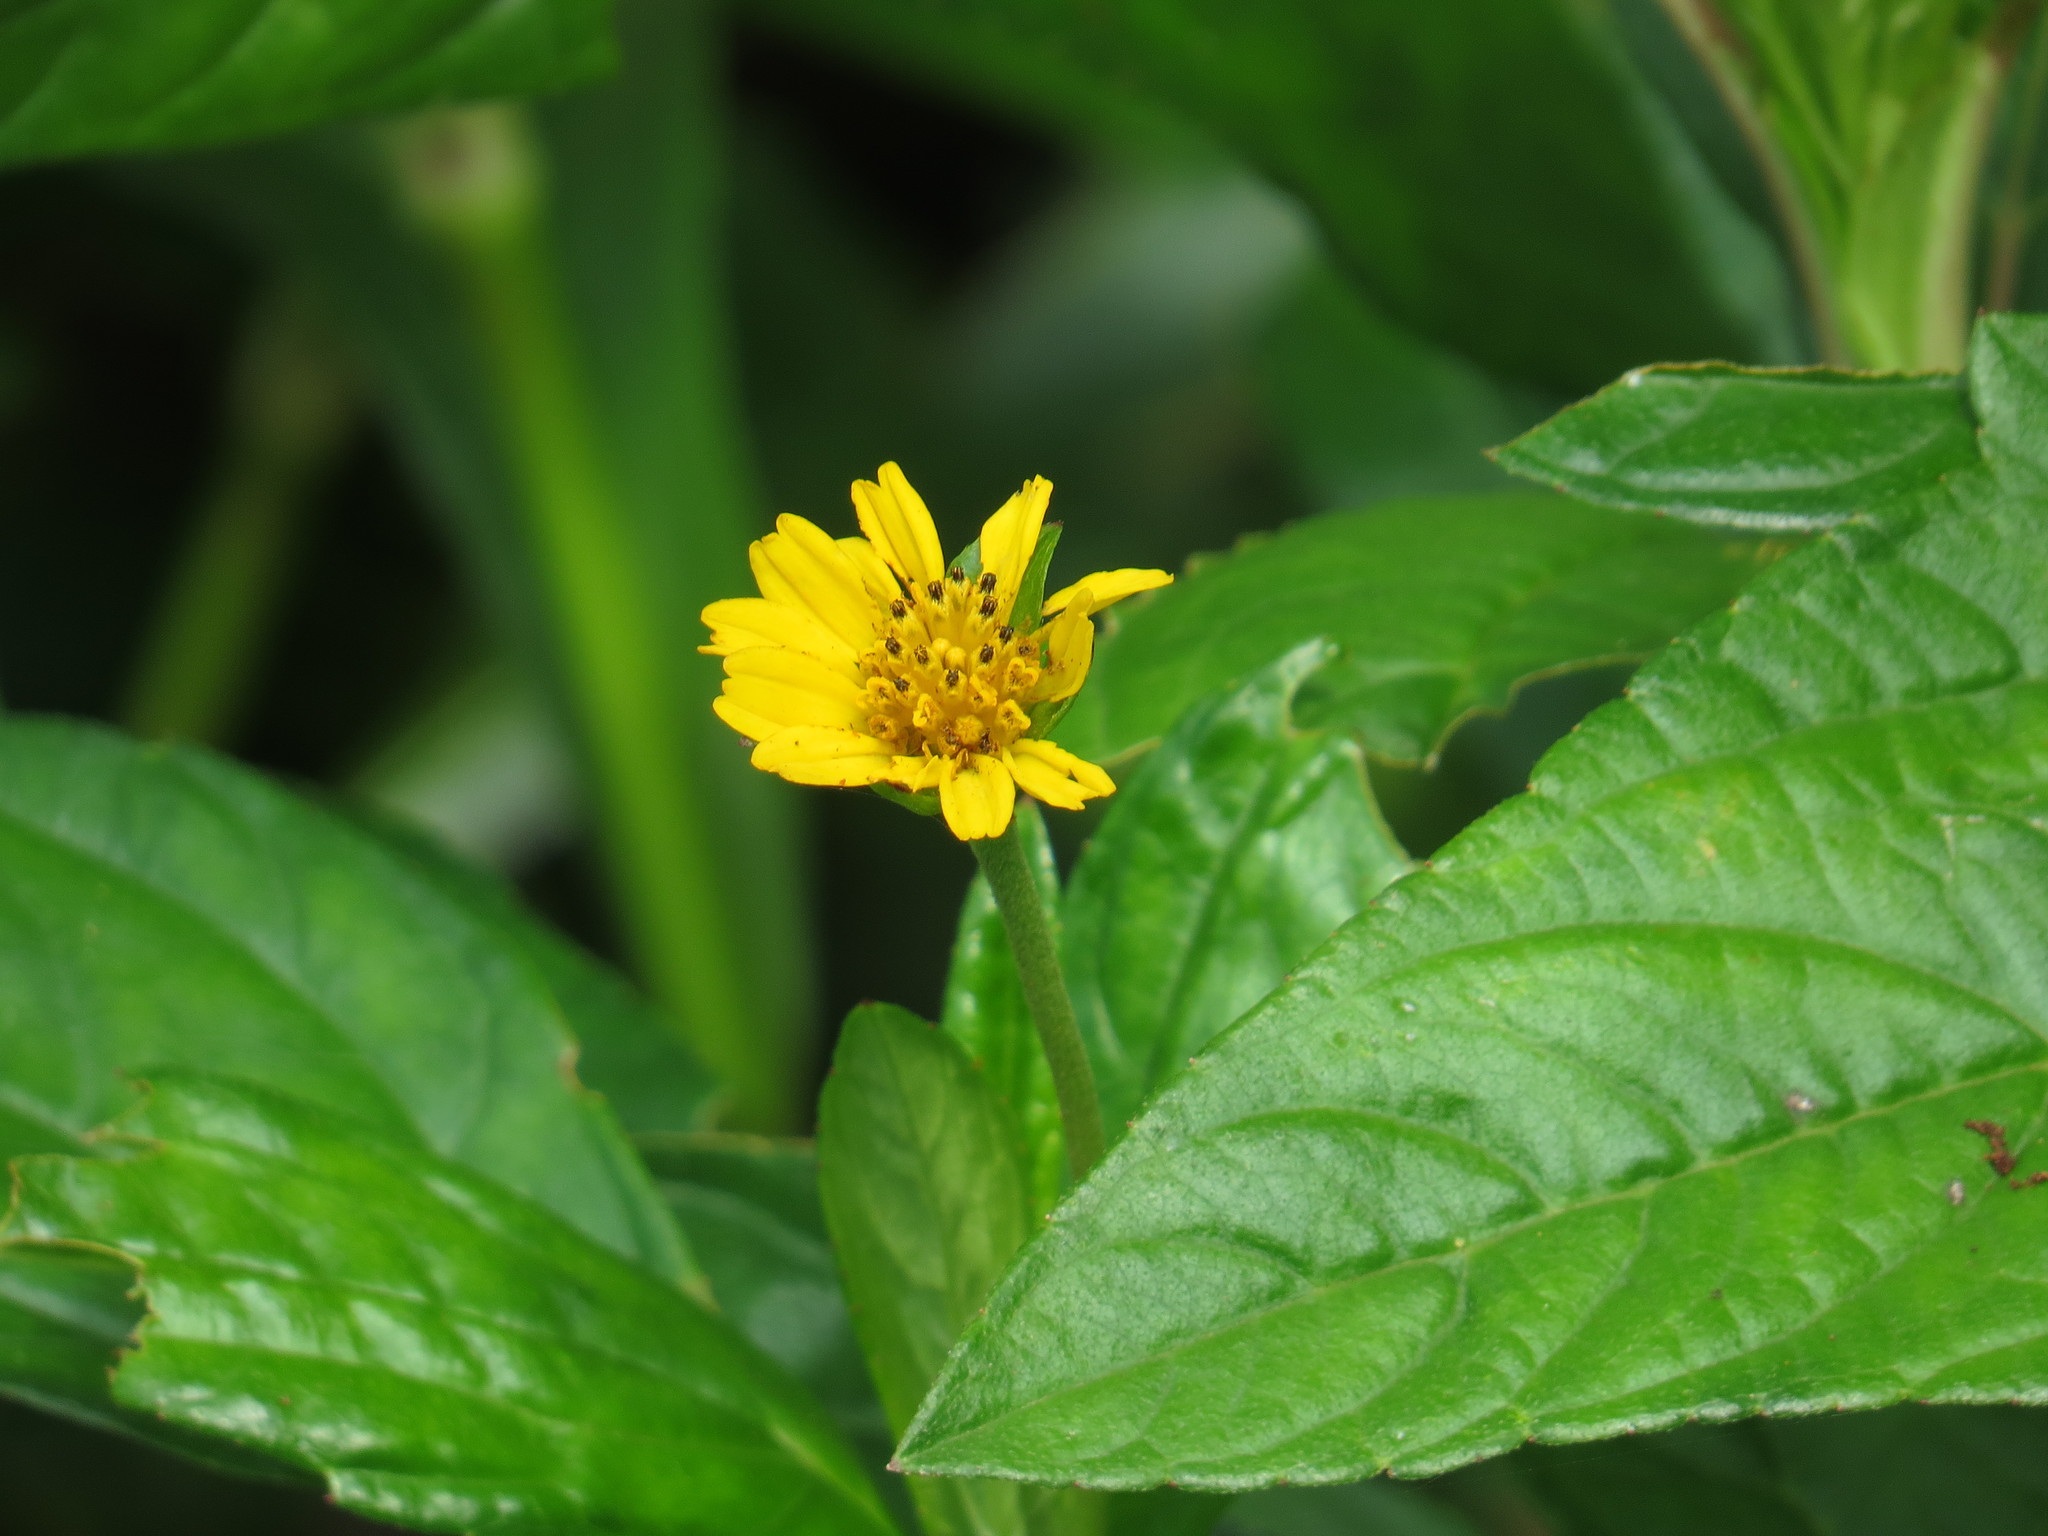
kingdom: Plantae
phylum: Tracheophyta
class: Magnoliopsida
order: Asterales
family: Asteraceae
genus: Sphagneticola
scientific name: Sphagneticola trilobata
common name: Bay biscayne creeping-oxeye
